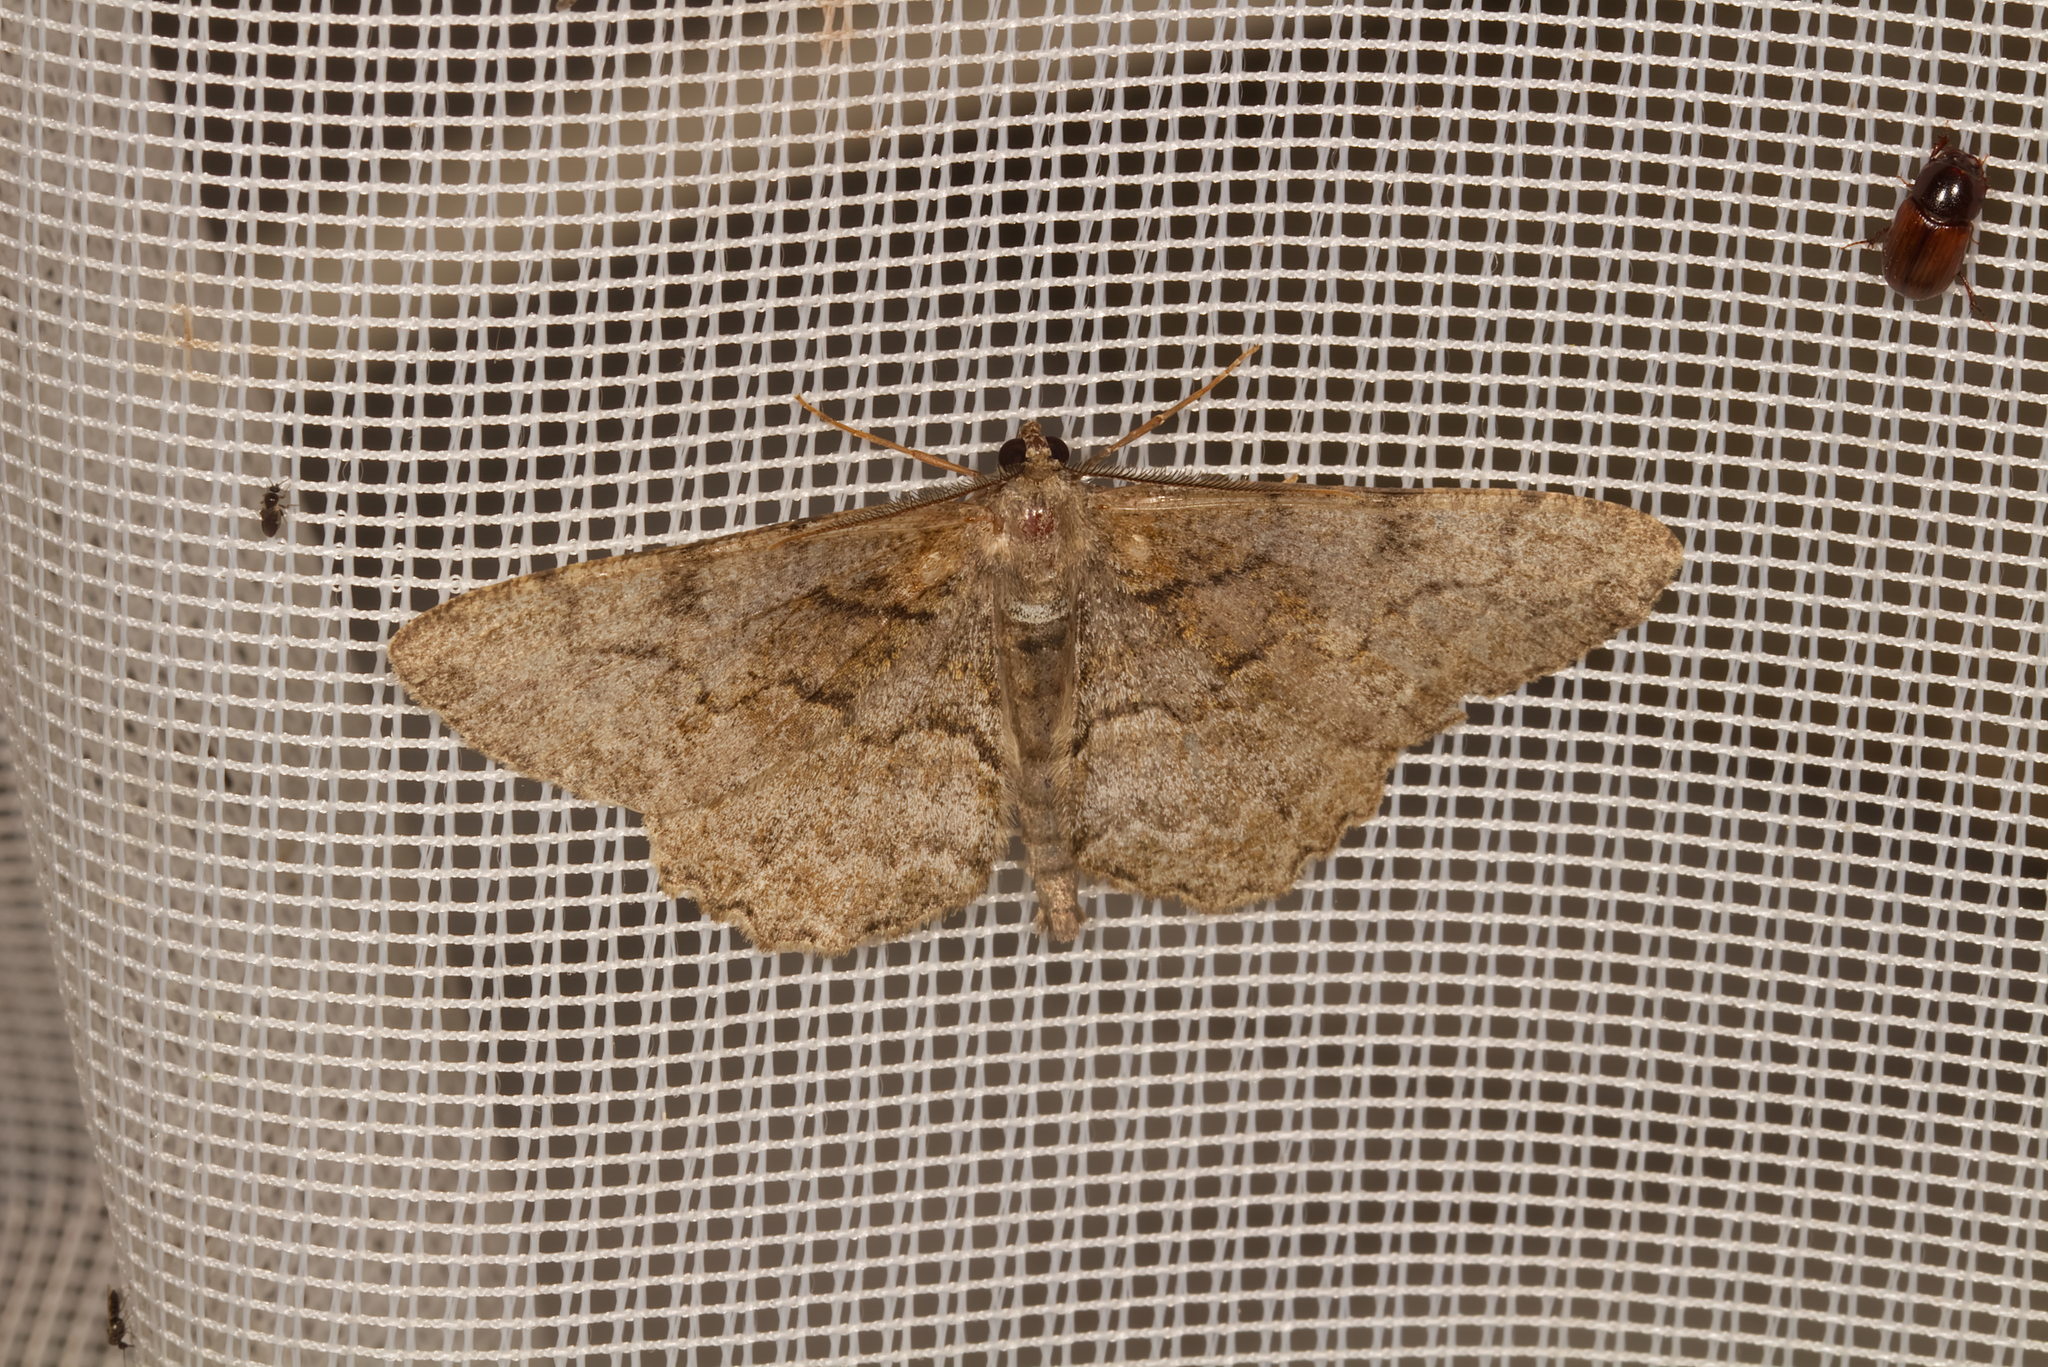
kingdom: Animalia
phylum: Arthropoda
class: Insecta
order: Lepidoptera
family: Geometridae
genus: Alcis
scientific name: Alcis repandata
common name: Mottled beauty
